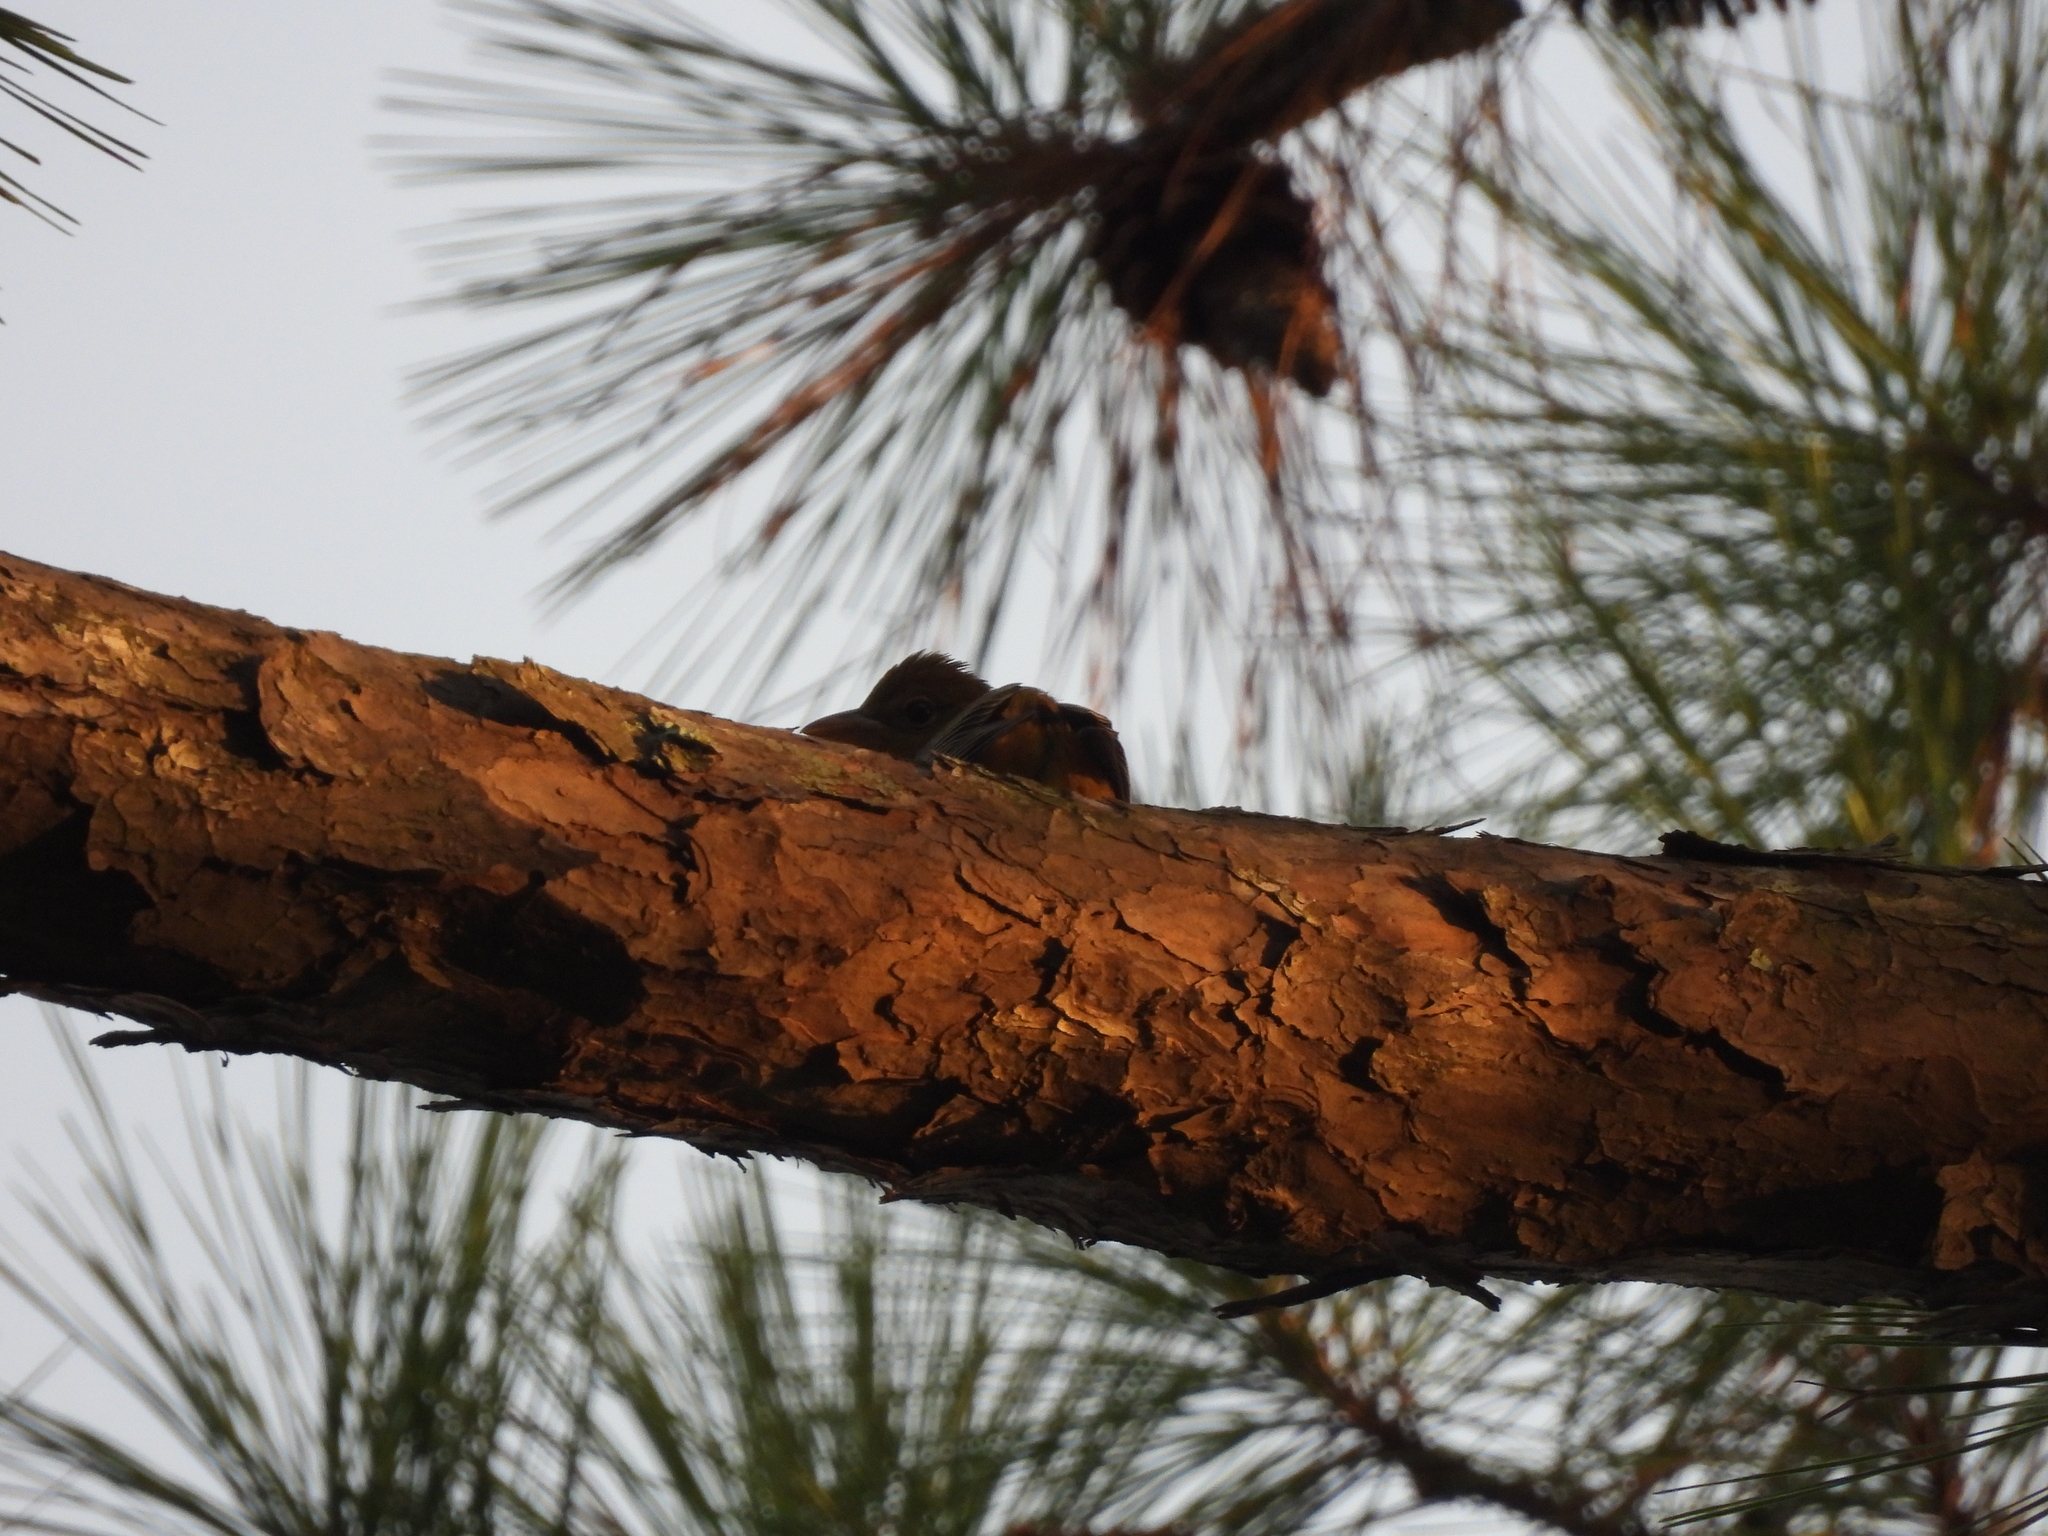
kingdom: Animalia
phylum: Chordata
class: Aves
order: Passeriformes
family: Cardinalidae
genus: Piranga
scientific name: Piranga rubra
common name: Summer tanager
